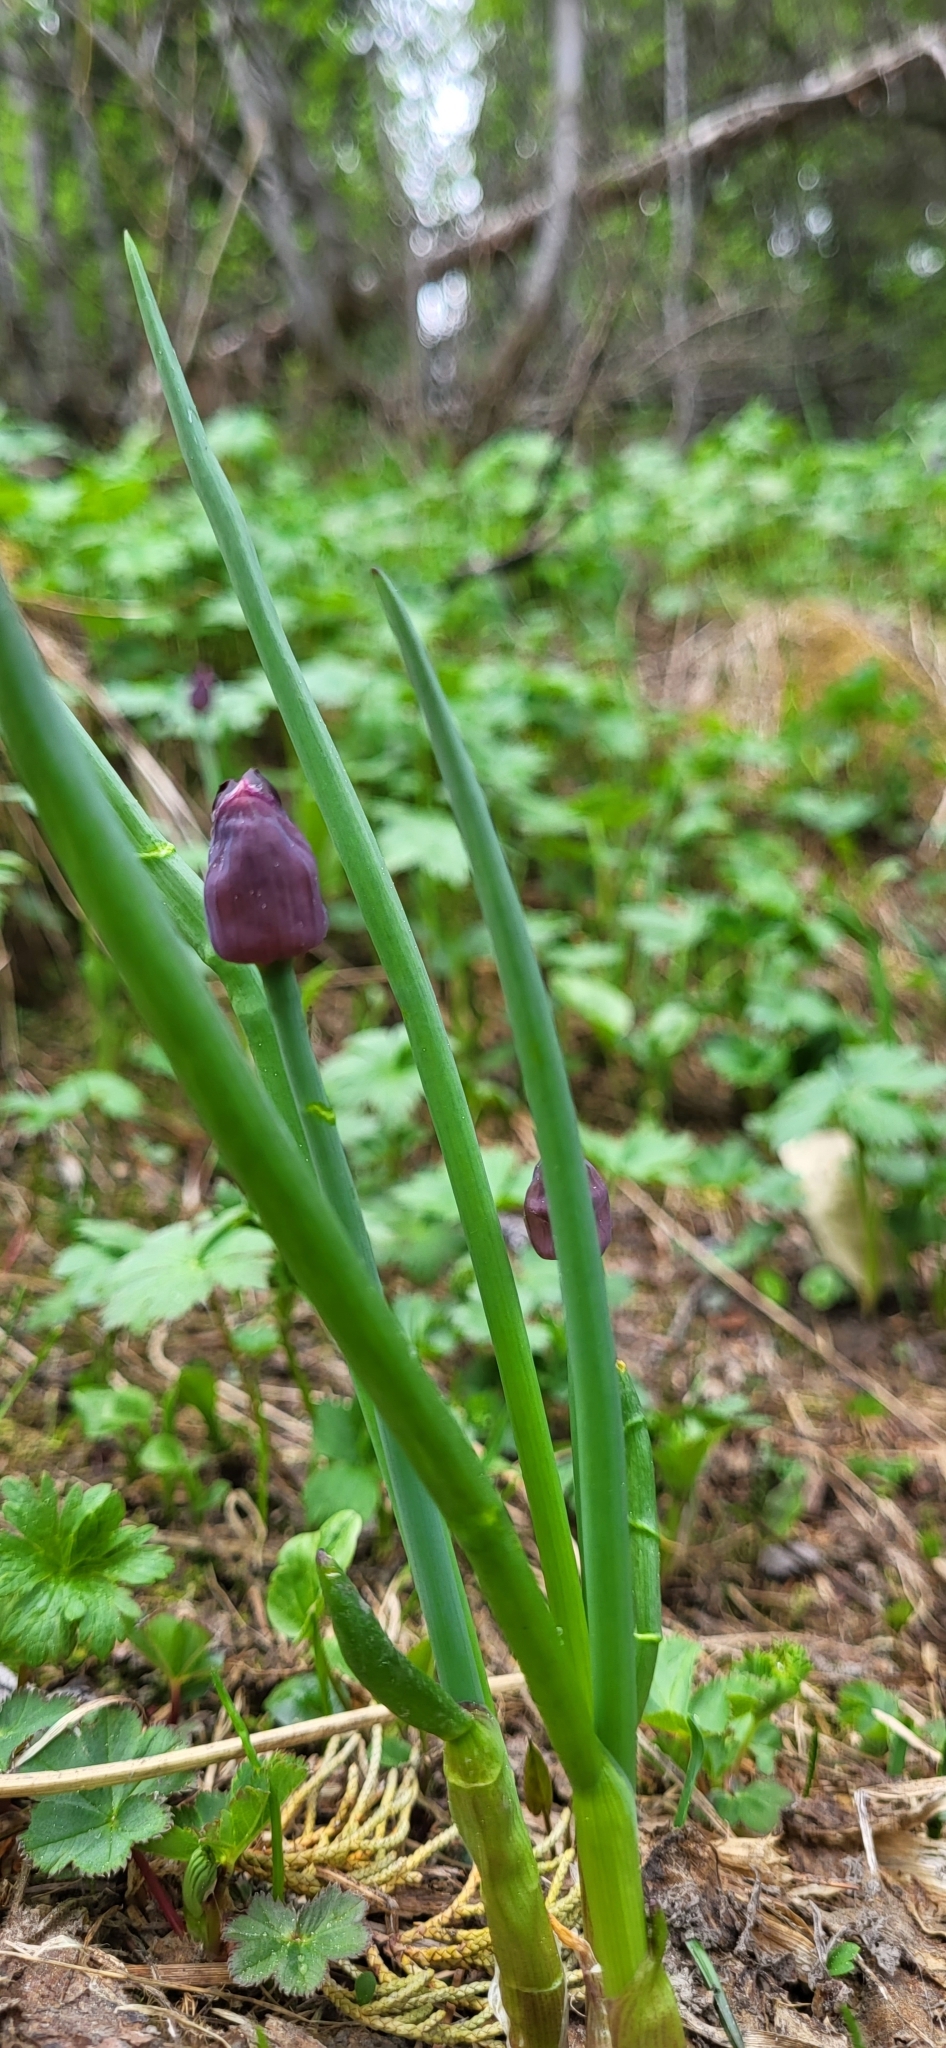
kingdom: Plantae
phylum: Tracheophyta
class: Liliopsida
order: Asparagales
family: Amaryllidaceae
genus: Allium
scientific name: Allium atrosanguineum
